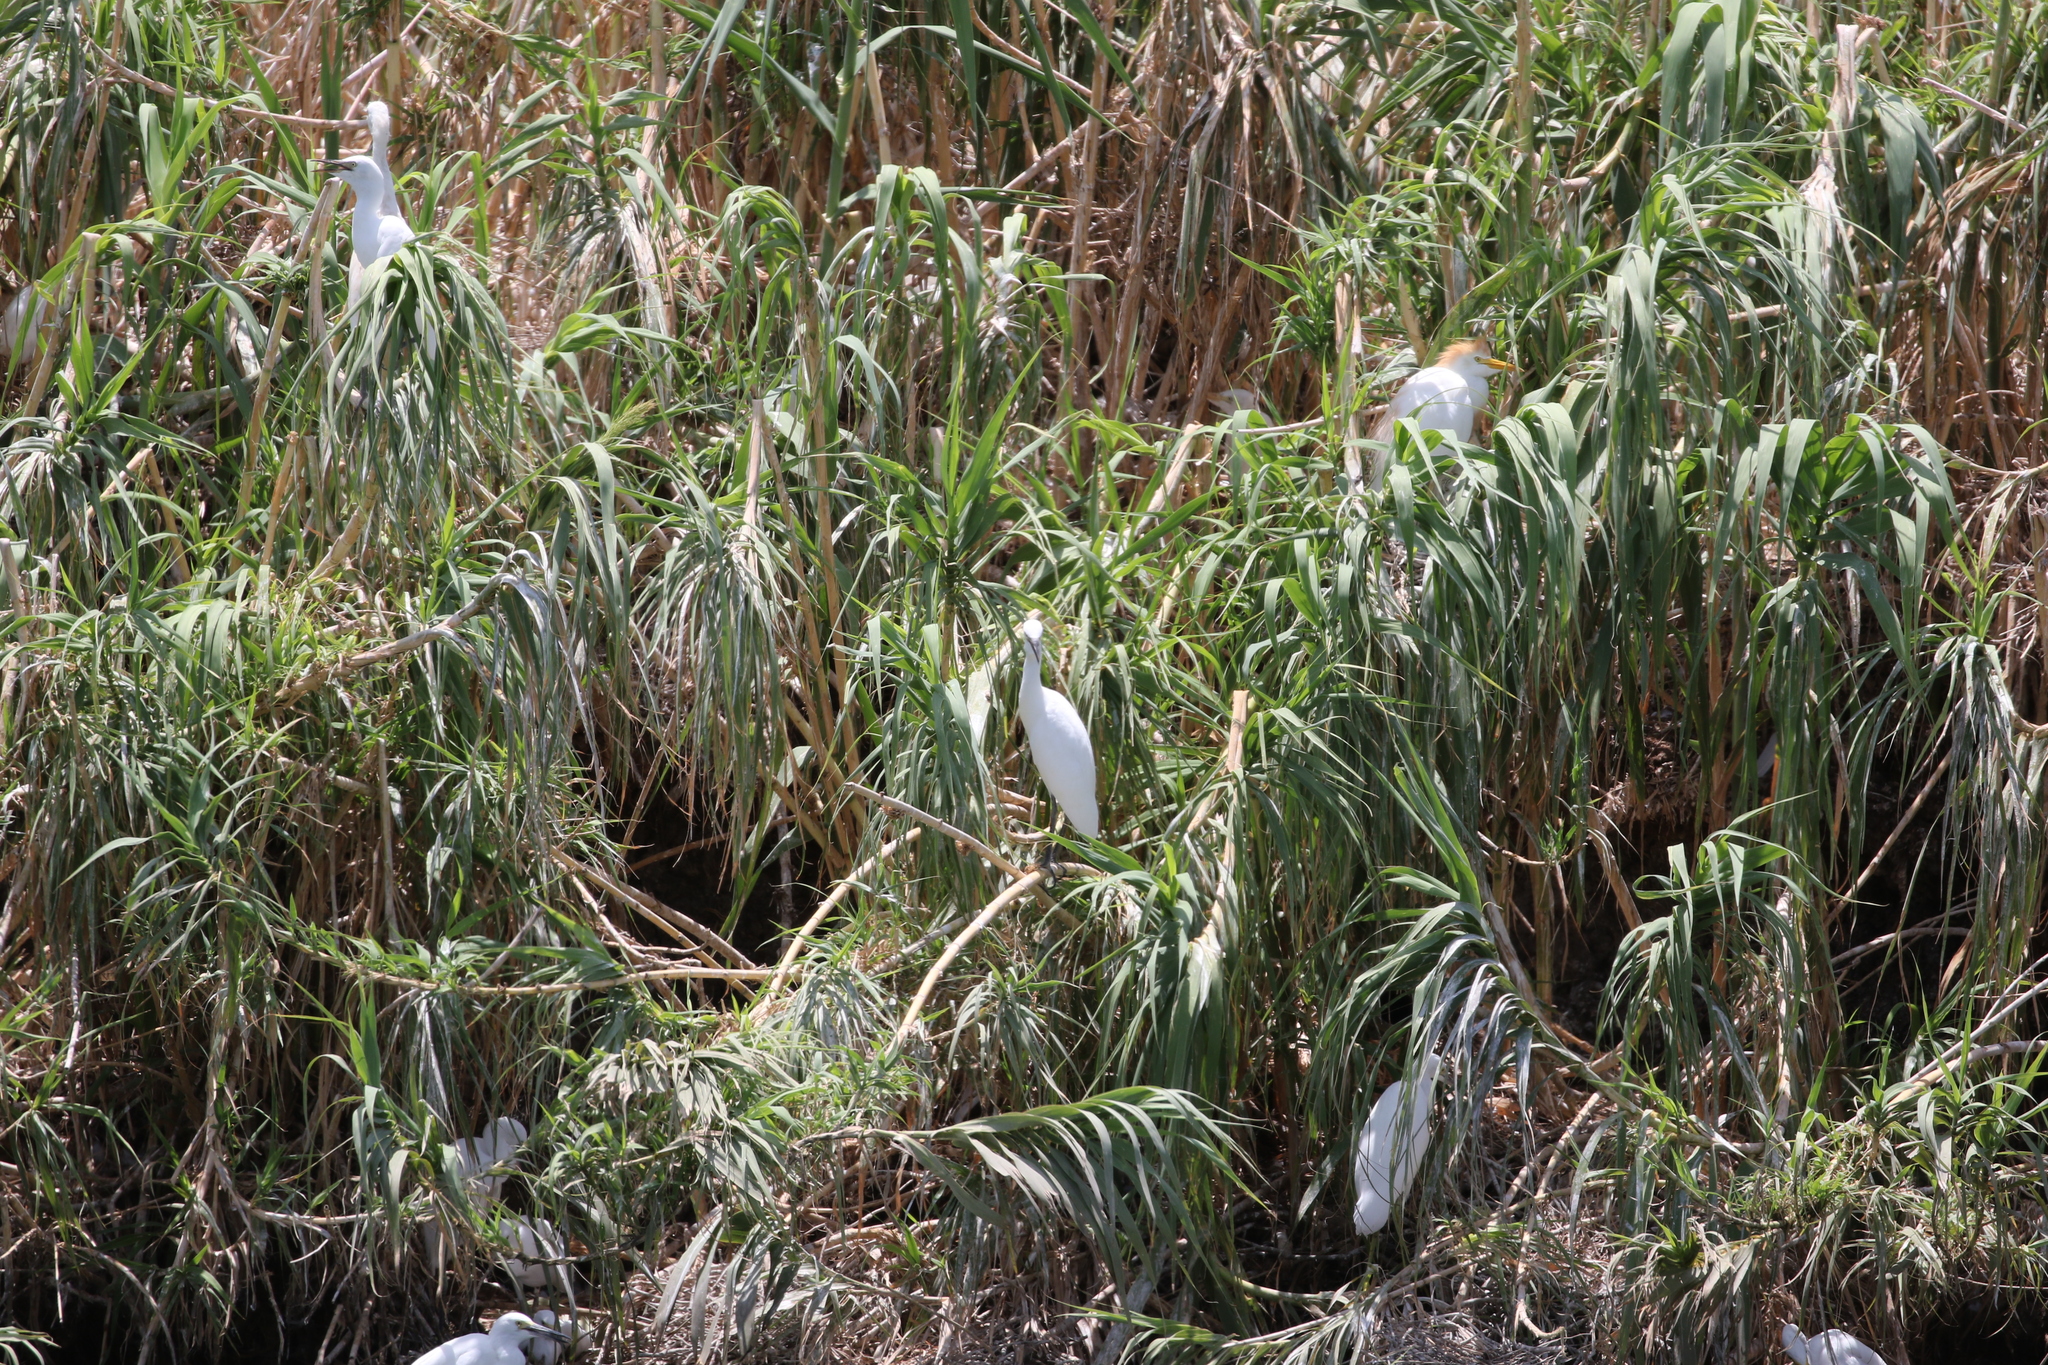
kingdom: Animalia
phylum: Chordata
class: Aves
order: Pelecaniformes
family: Ardeidae
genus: Bubulcus
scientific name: Bubulcus ibis
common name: Cattle egret
